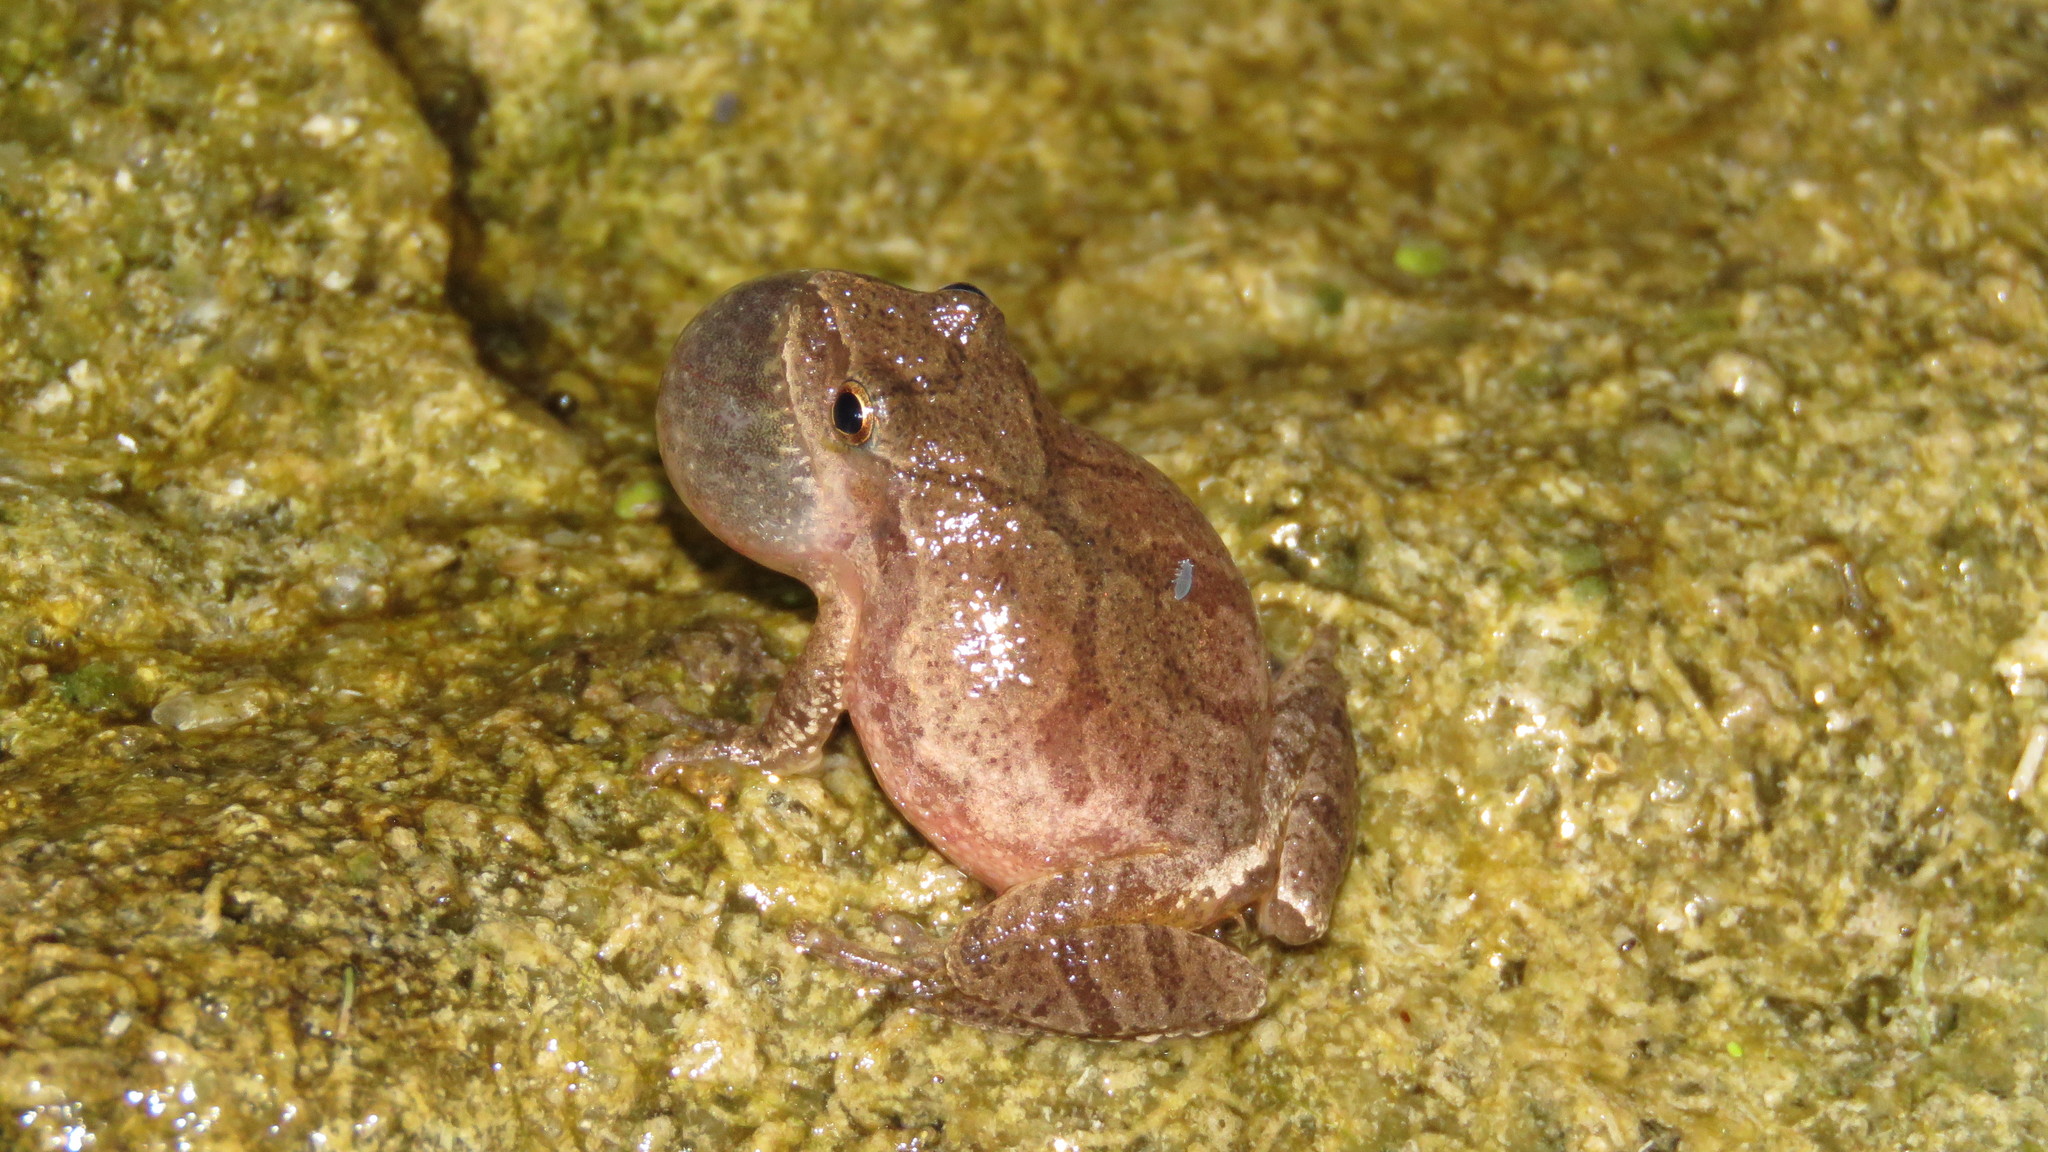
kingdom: Animalia
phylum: Chordata
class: Amphibia
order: Anura
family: Hylidae
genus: Pseudacris
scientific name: Pseudacris crucifer
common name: Spring peeper
